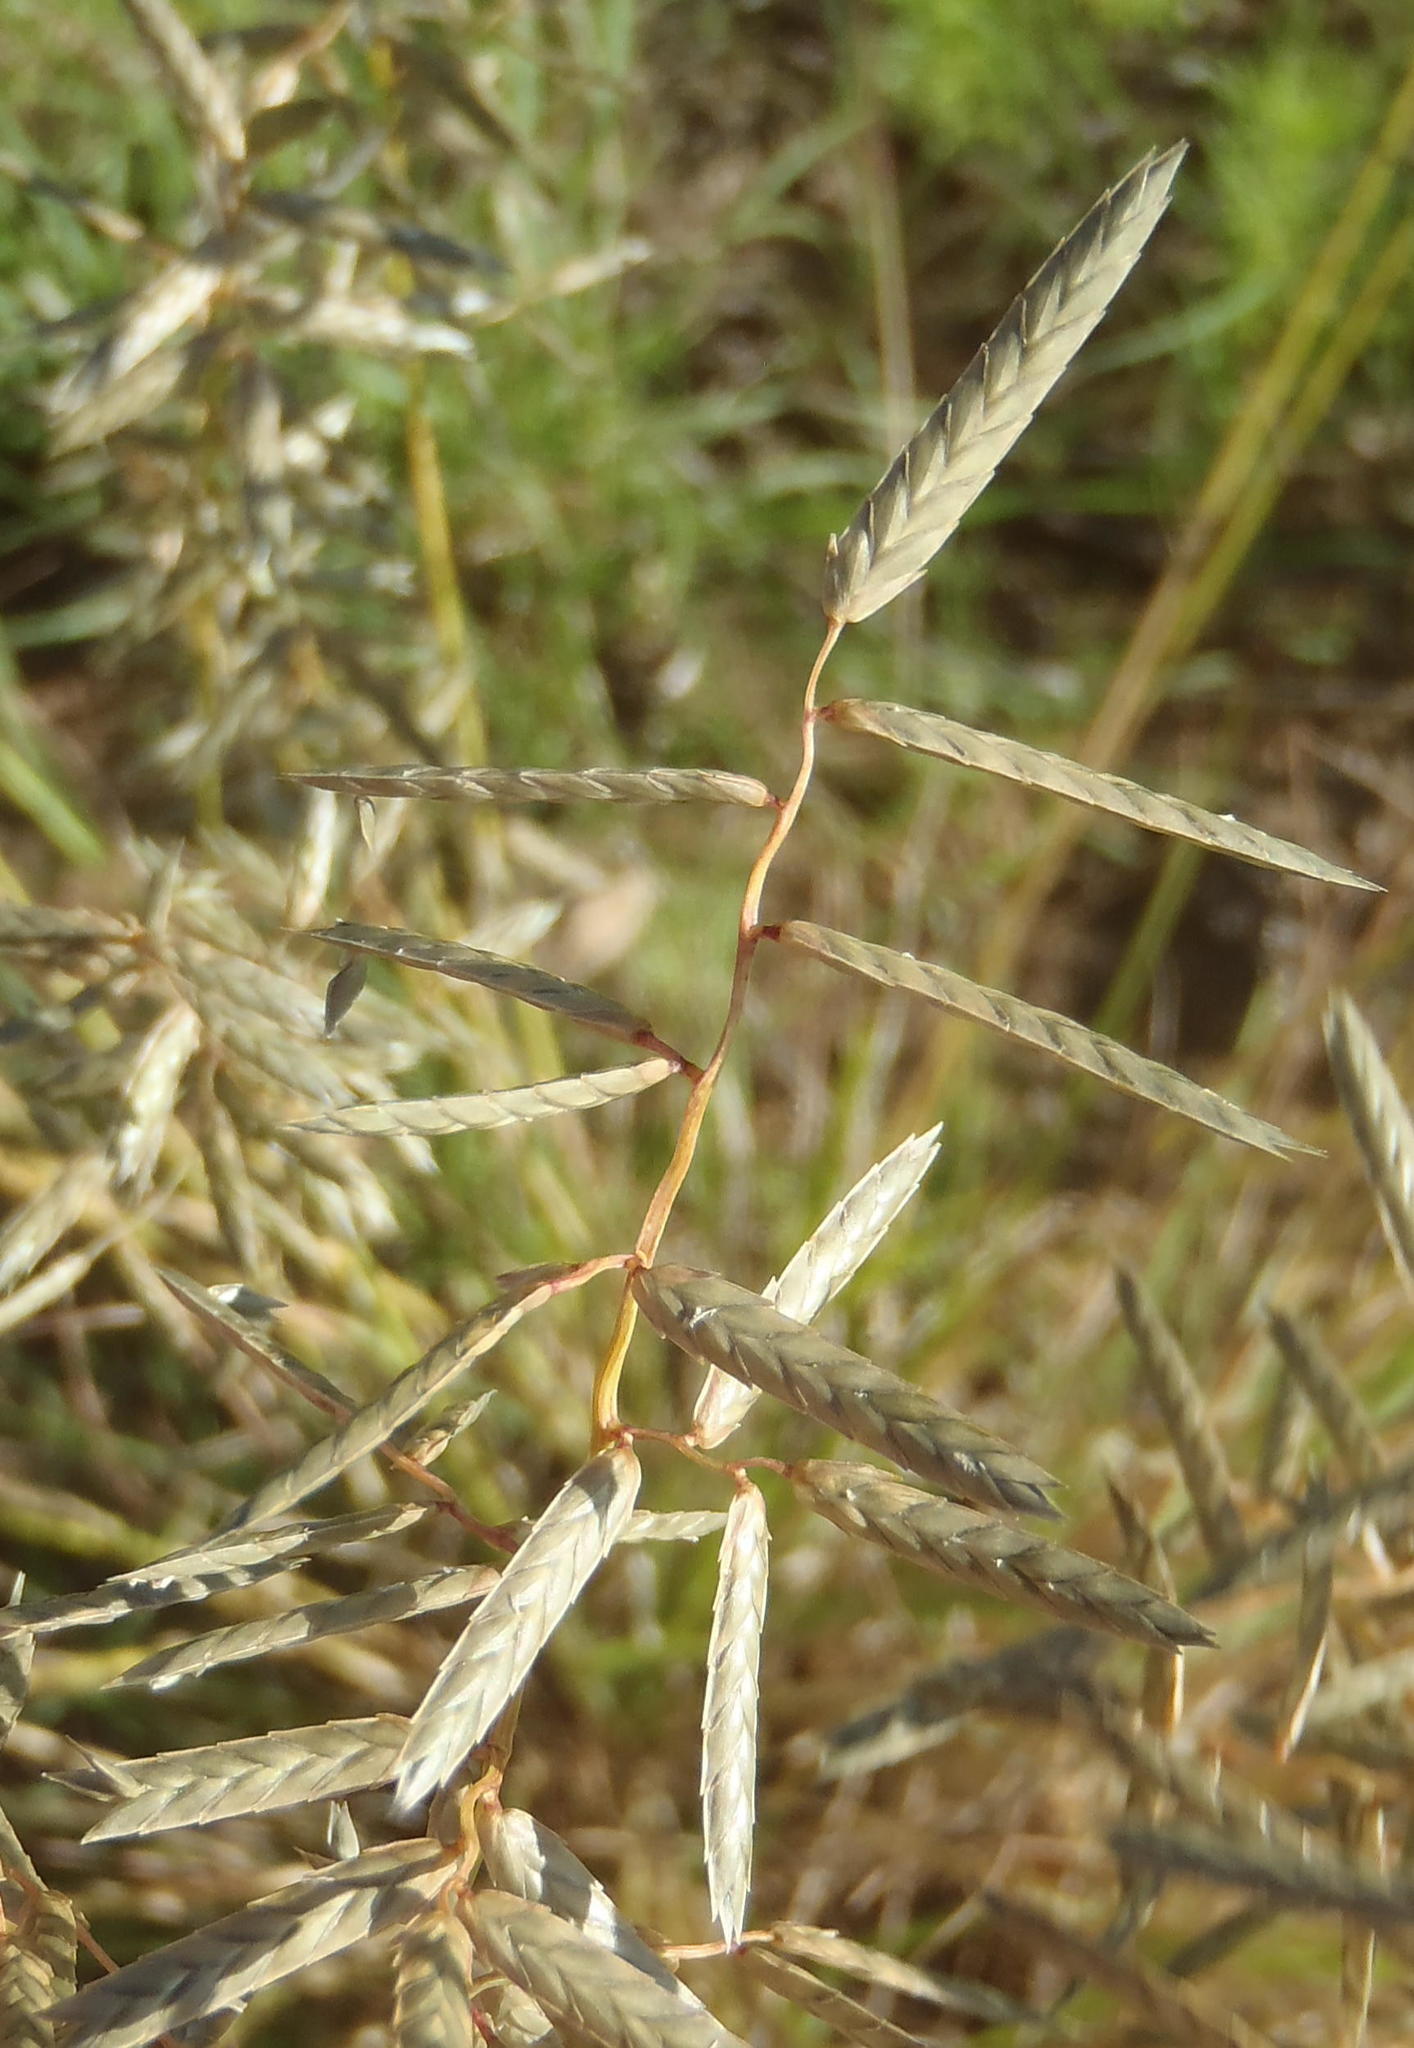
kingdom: Plantae
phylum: Tracheophyta
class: Liliopsida
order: Poales
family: Poaceae
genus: Eragrostis
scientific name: Eragrostis nindensis
